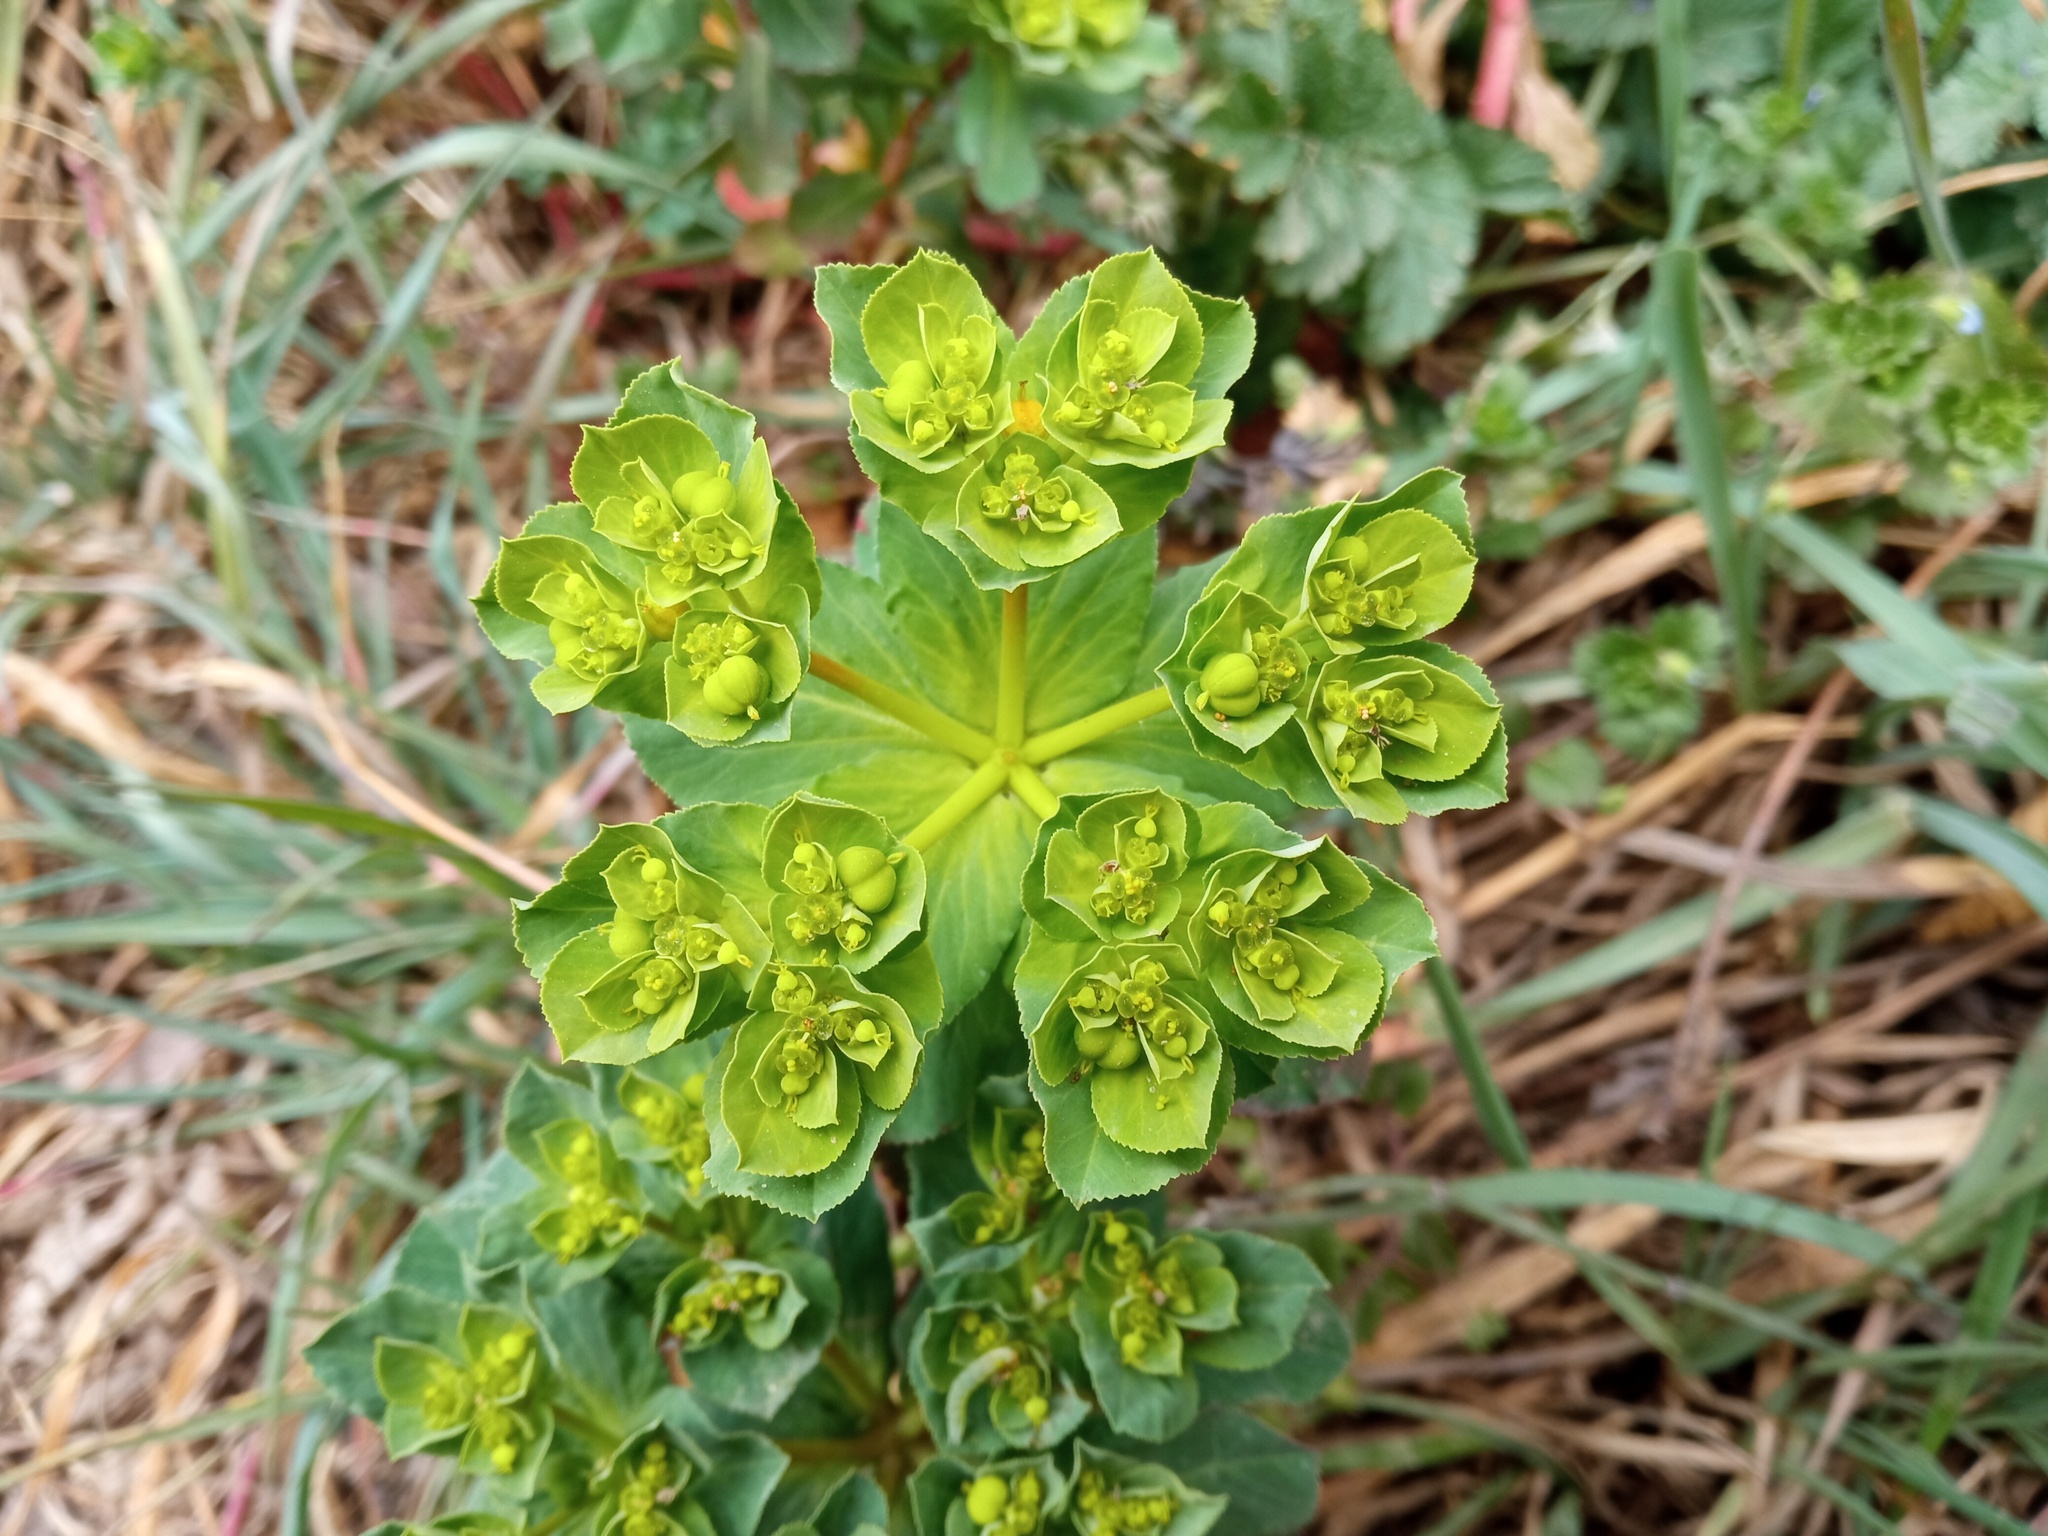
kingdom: Plantae
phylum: Tracheophyta
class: Magnoliopsida
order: Malpighiales
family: Euphorbiaceae
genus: Euphorbia
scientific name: Euphorbia helioscopia
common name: Sun spurge
